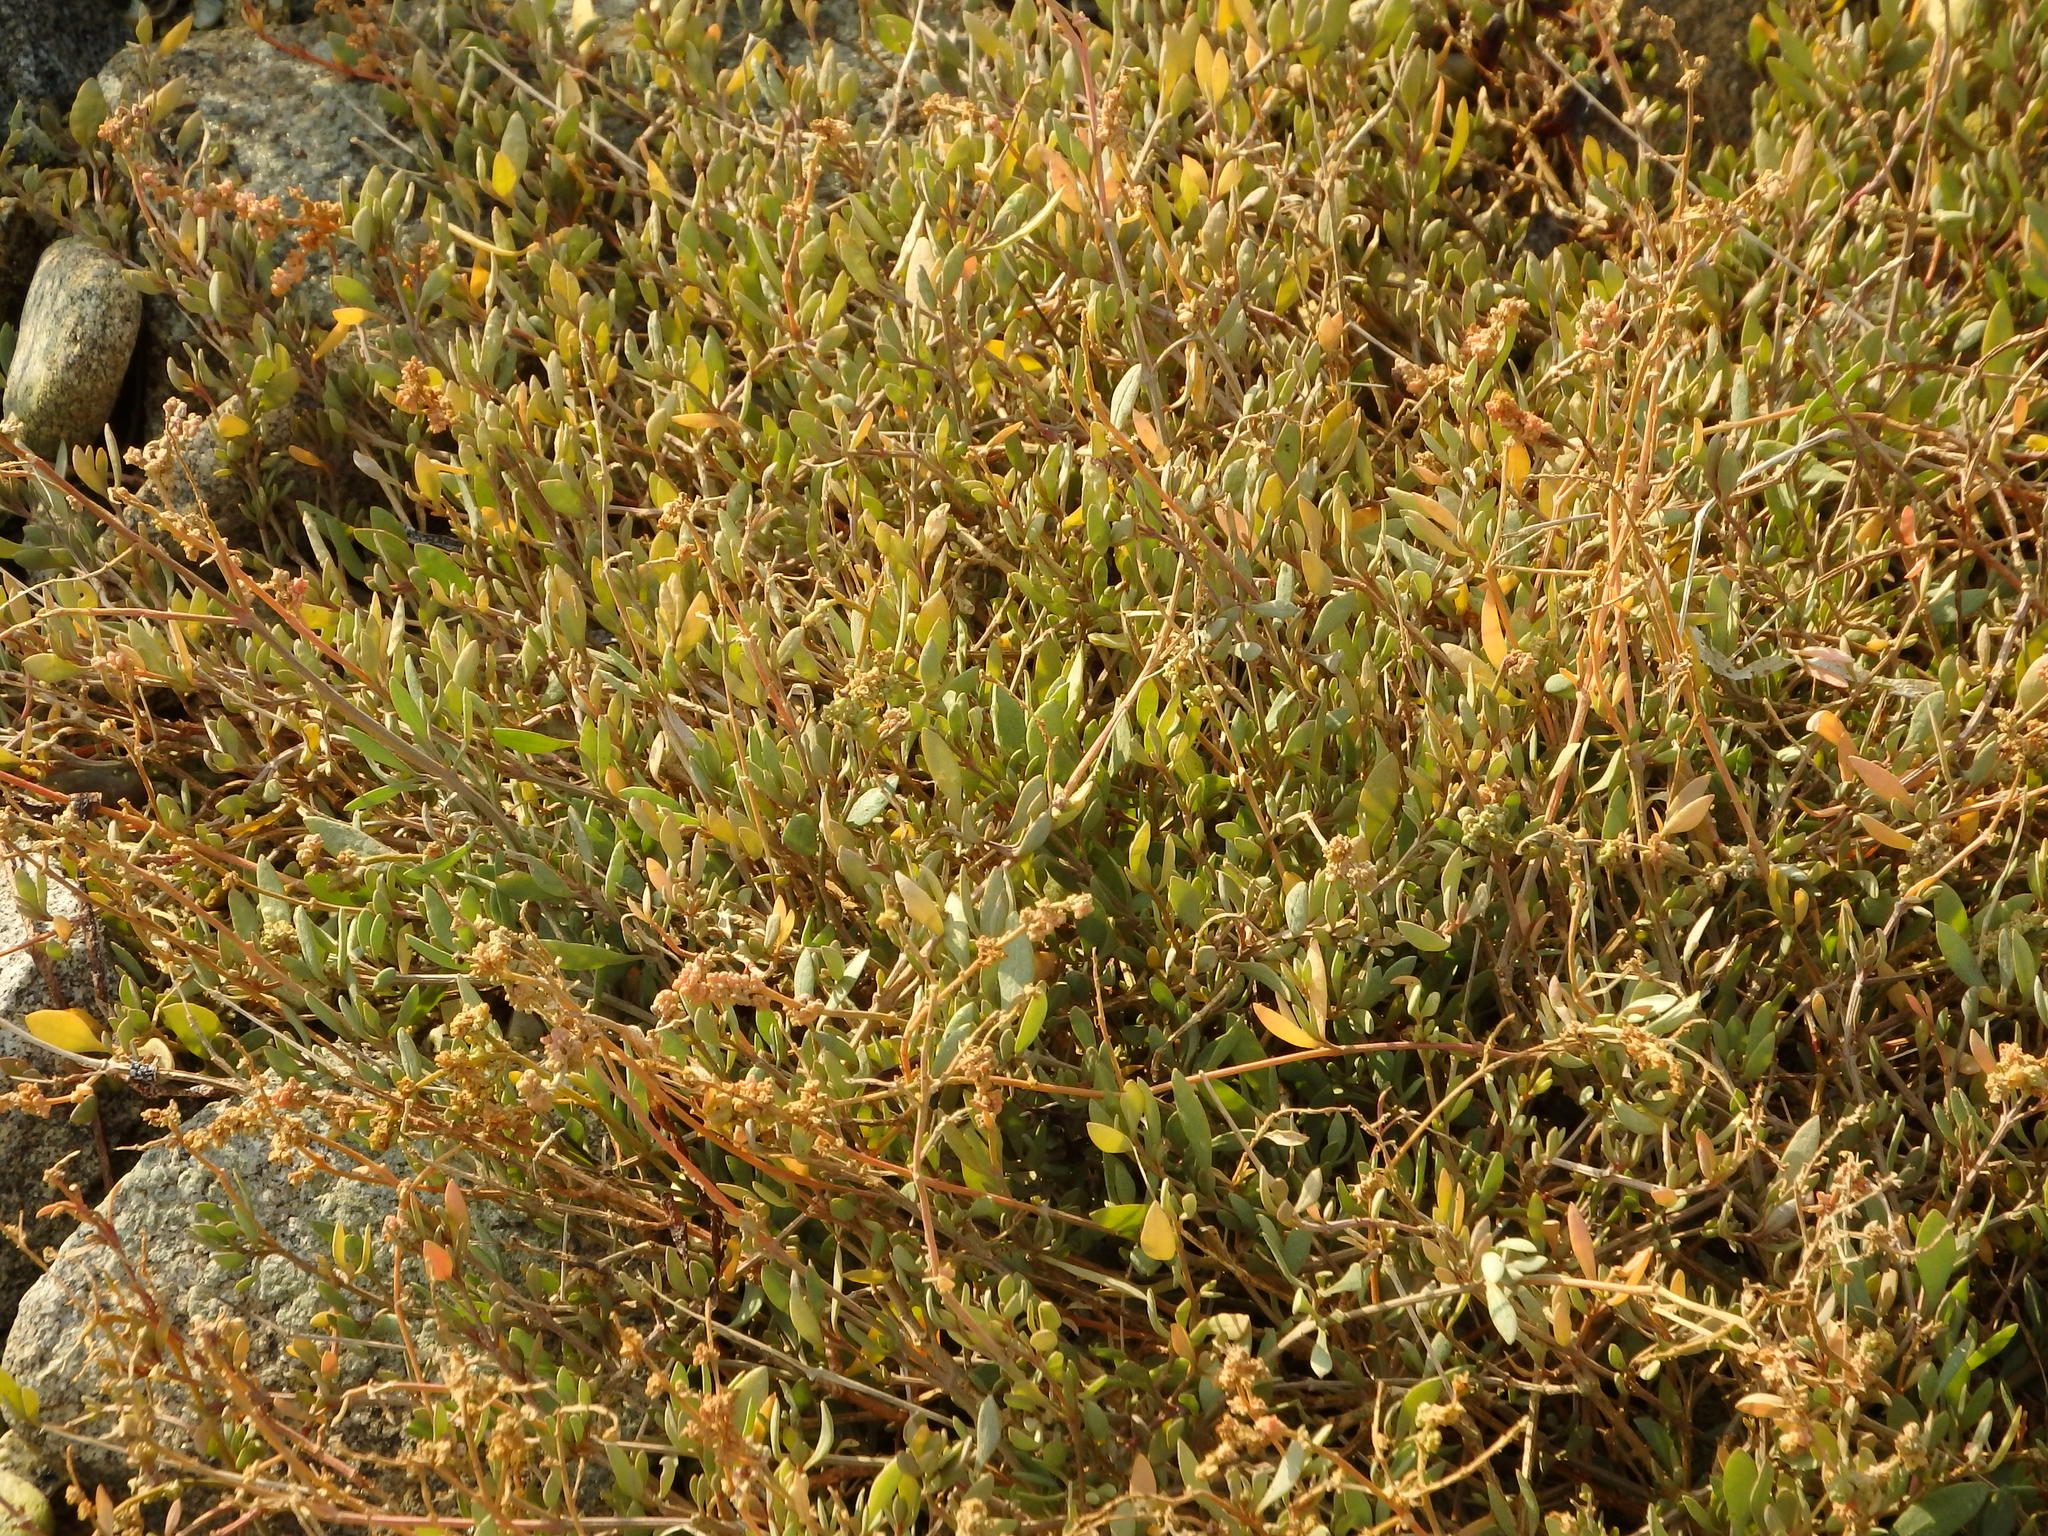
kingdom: Plantae
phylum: Tracheophyta
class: Magnoliopsida
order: Caryophyllales
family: Amaranthaceae
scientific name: Amaranthaceae
